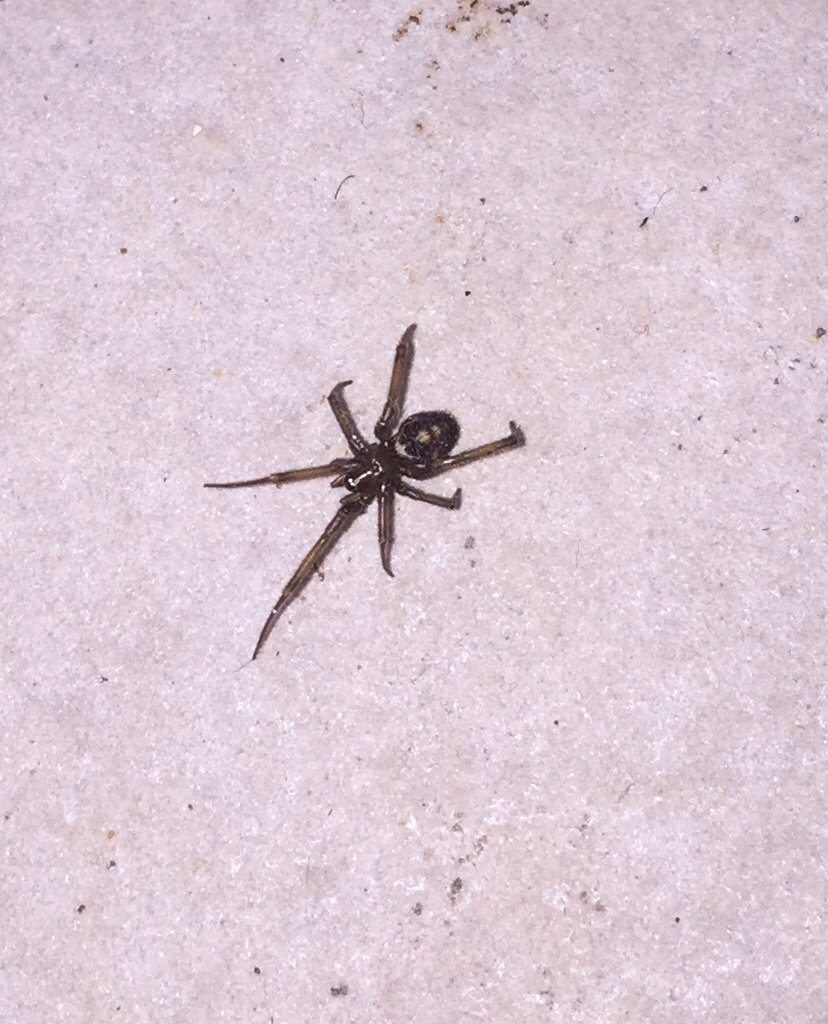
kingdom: Animalia
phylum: Arthropoda
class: Arachnida
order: Araneae
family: Theridiidae
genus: Steatoda
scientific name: Steatoda nobilis
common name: Cobweb weaver
